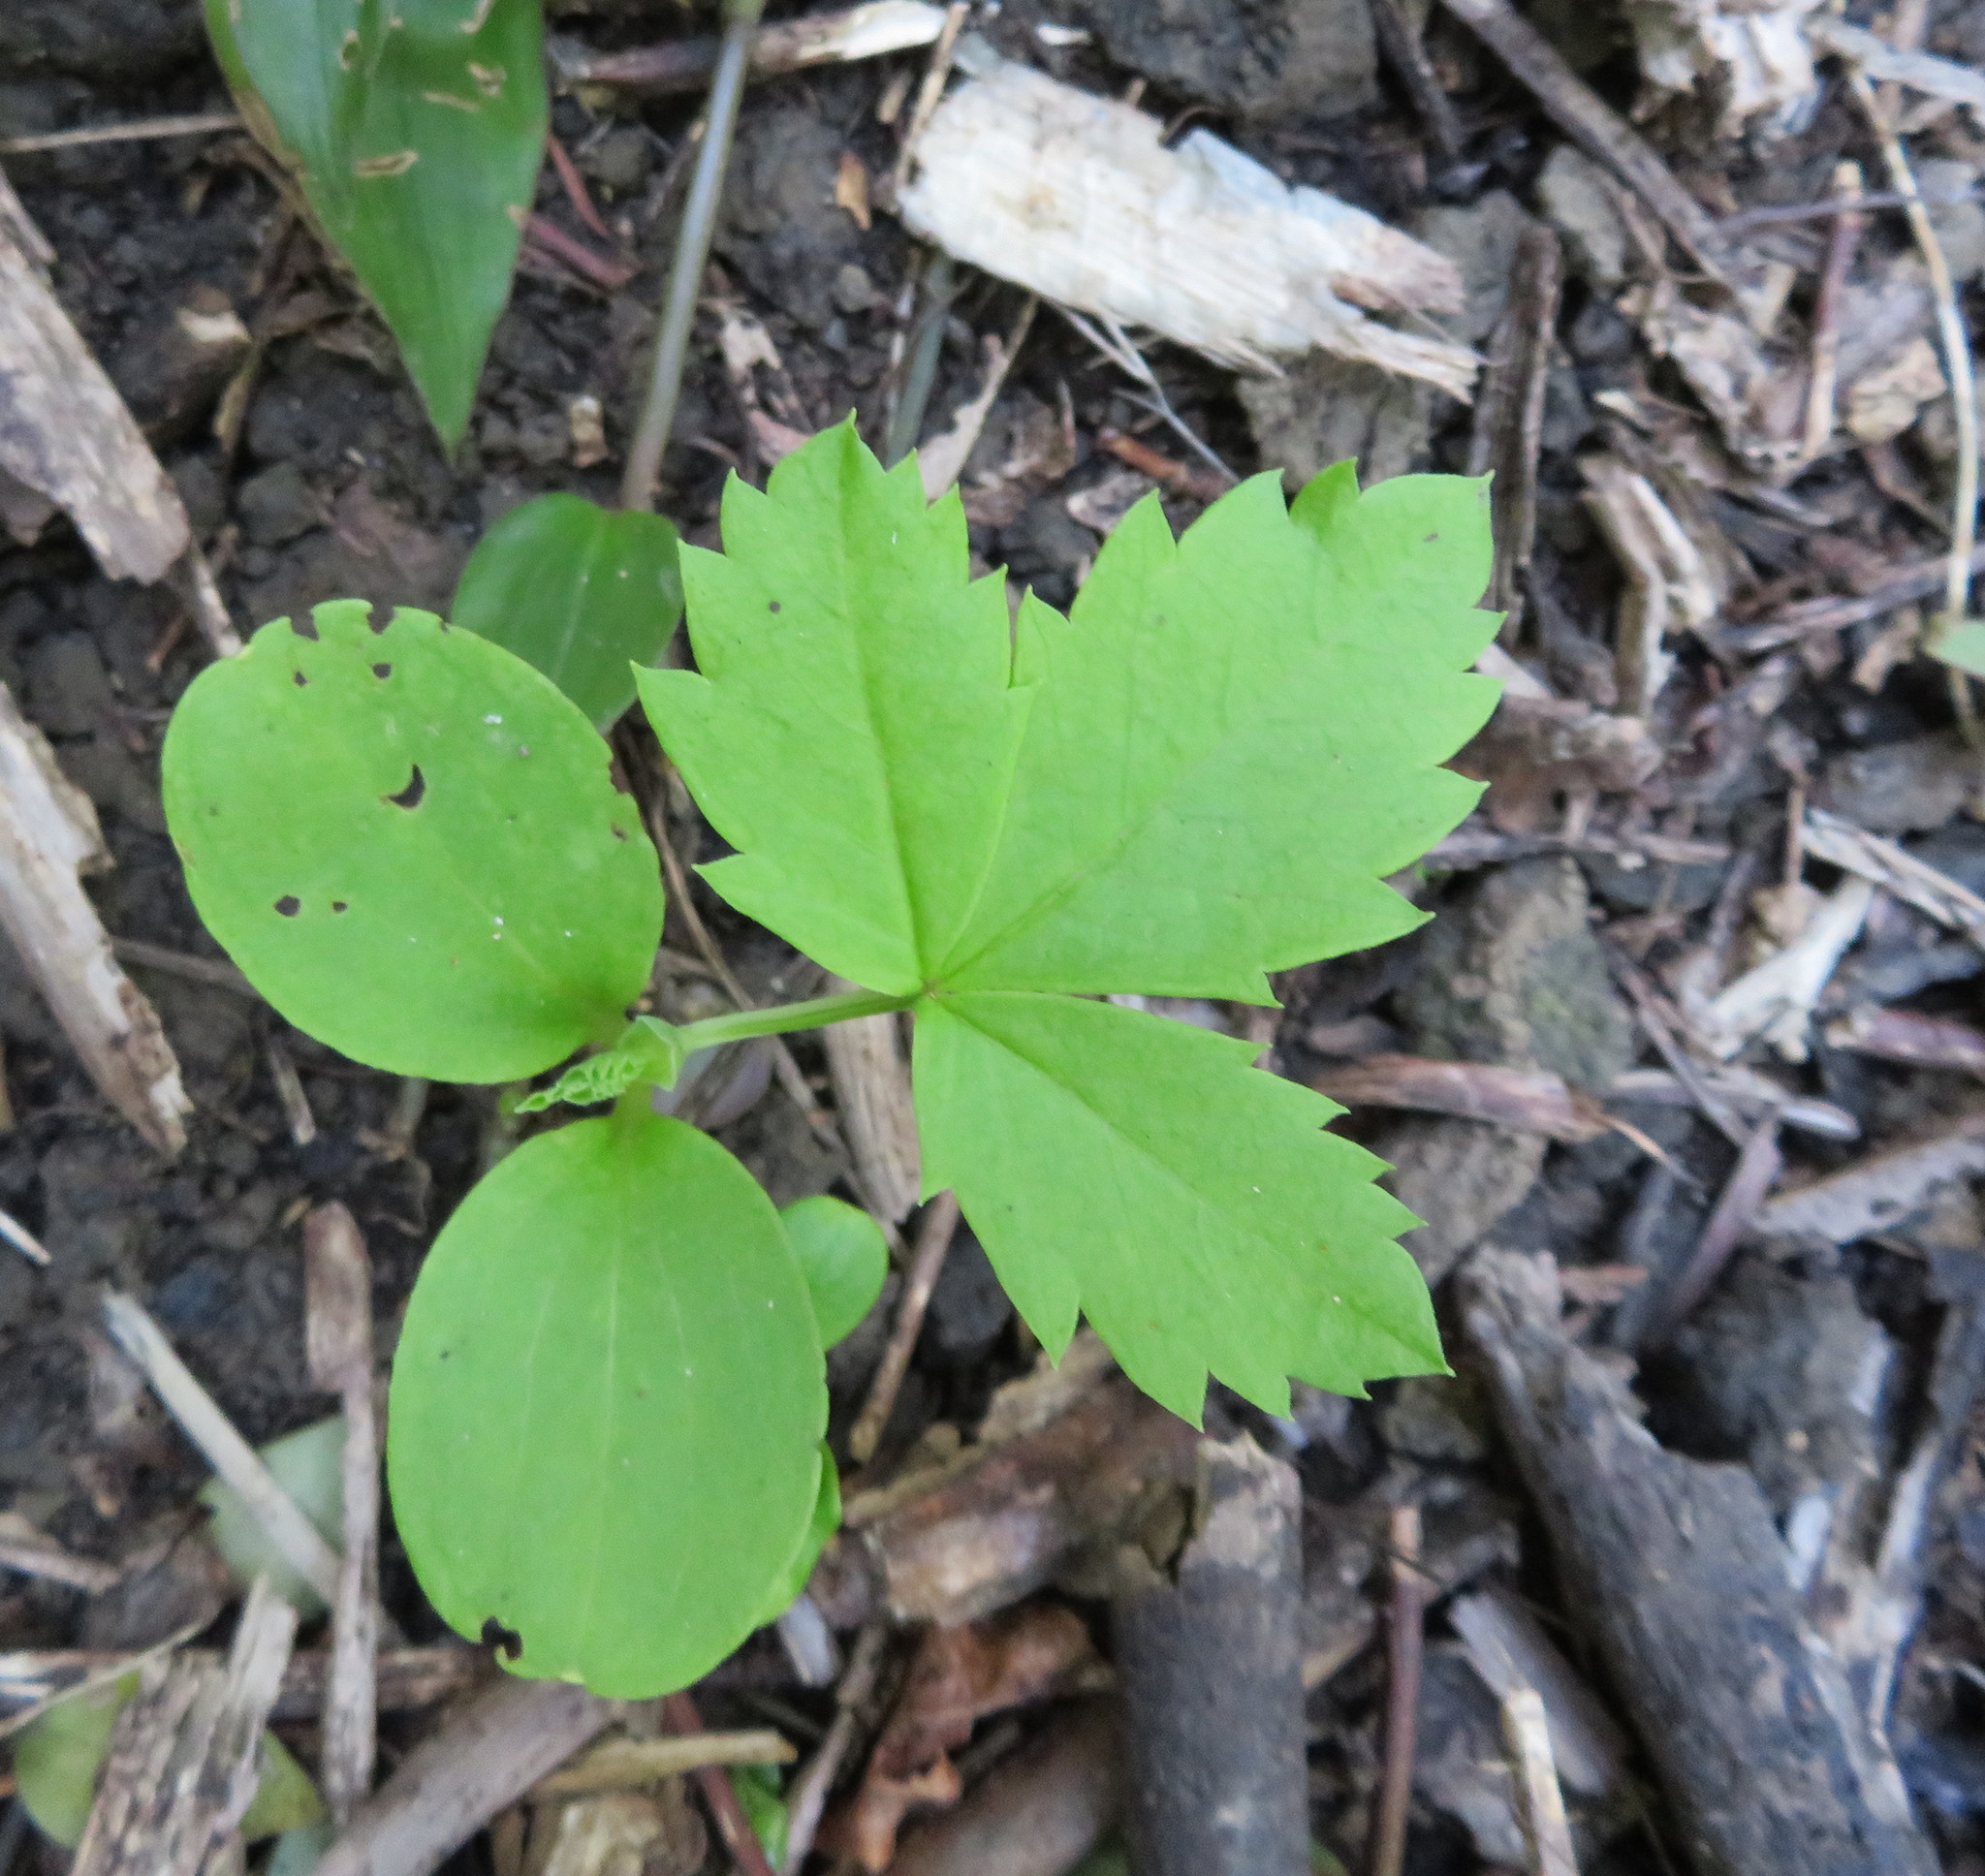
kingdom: Plantae
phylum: Tracheophyta
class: Magnoliopsida
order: Geraniales
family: Melianthaceae
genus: Melianthus
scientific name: Melianthus major
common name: Honey-flower
